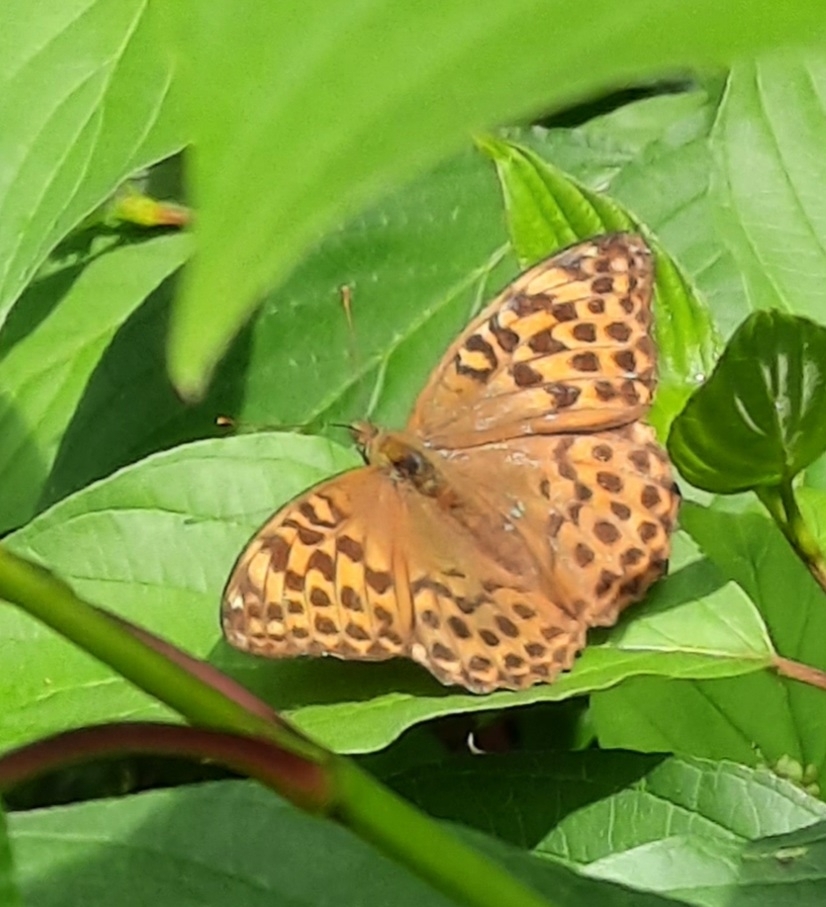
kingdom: Animalia
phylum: Arthropoda
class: Insecta
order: Lepidoptera
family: Nymphalidae
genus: Argynnis
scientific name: Argynnis paphia
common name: Silver-washed fritillary
